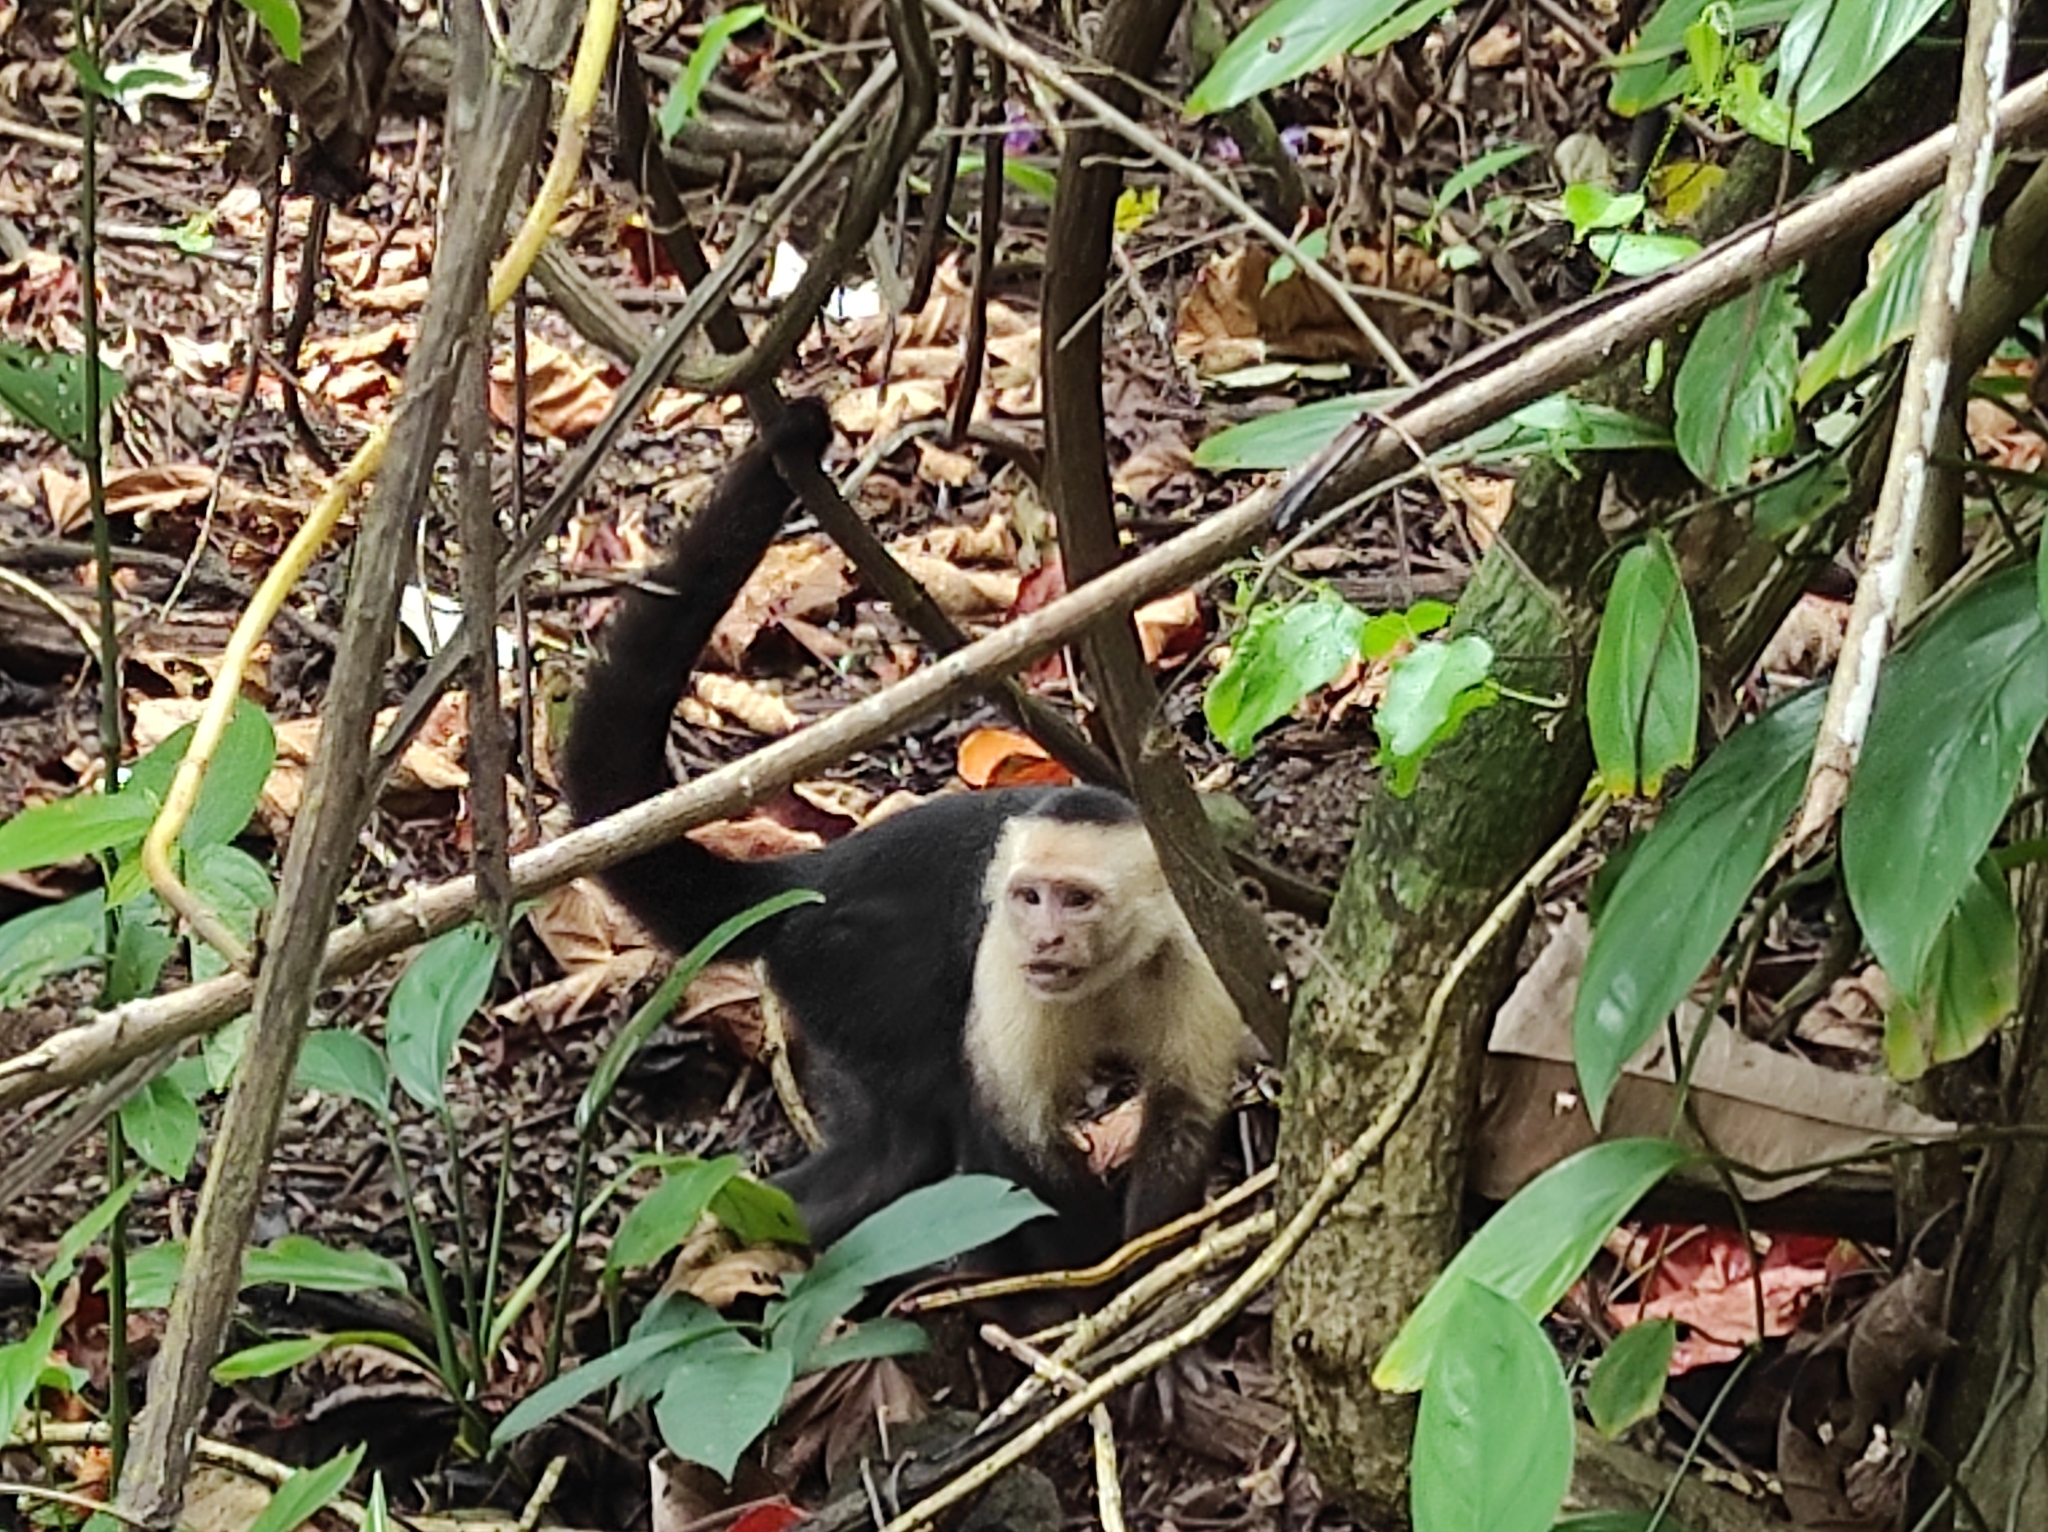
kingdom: Animalia
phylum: Chordata
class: Mammalia
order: Primates
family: Cebidae
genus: Cebus
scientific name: Cebus imitator
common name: Panamanian white-faced capuchin
